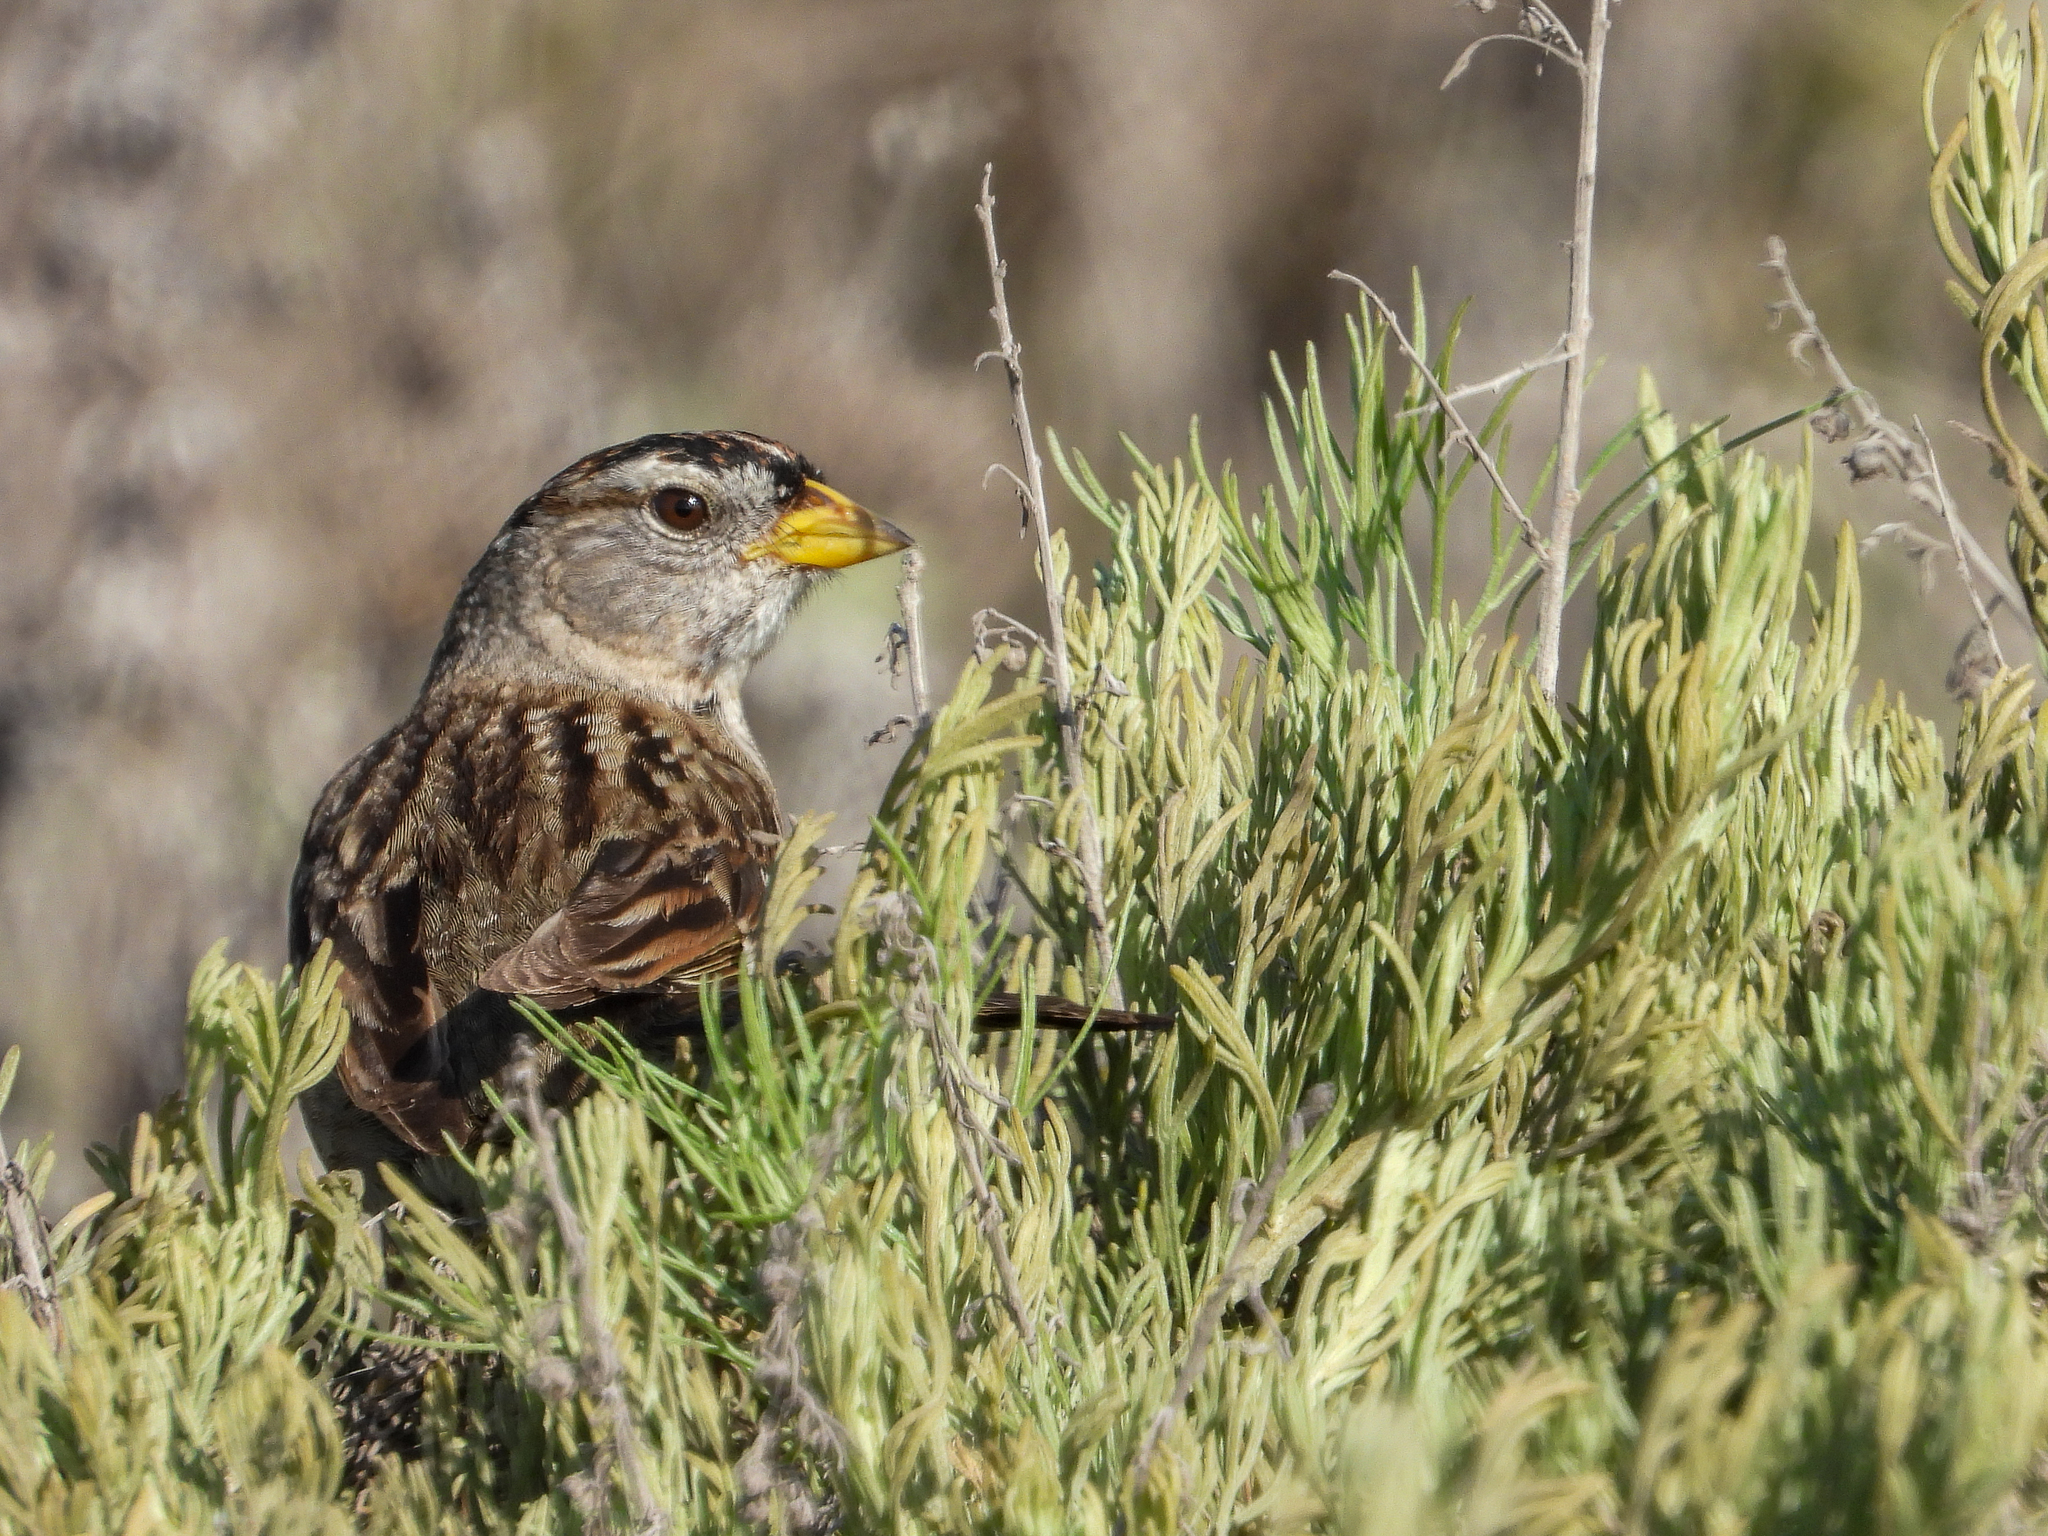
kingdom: Animalia
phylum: Chordata
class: Aves
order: Passeriformes
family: Passerellidae
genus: Zonotrichia
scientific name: Zonotrichia leucophrys
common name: White-crowned sparrow
